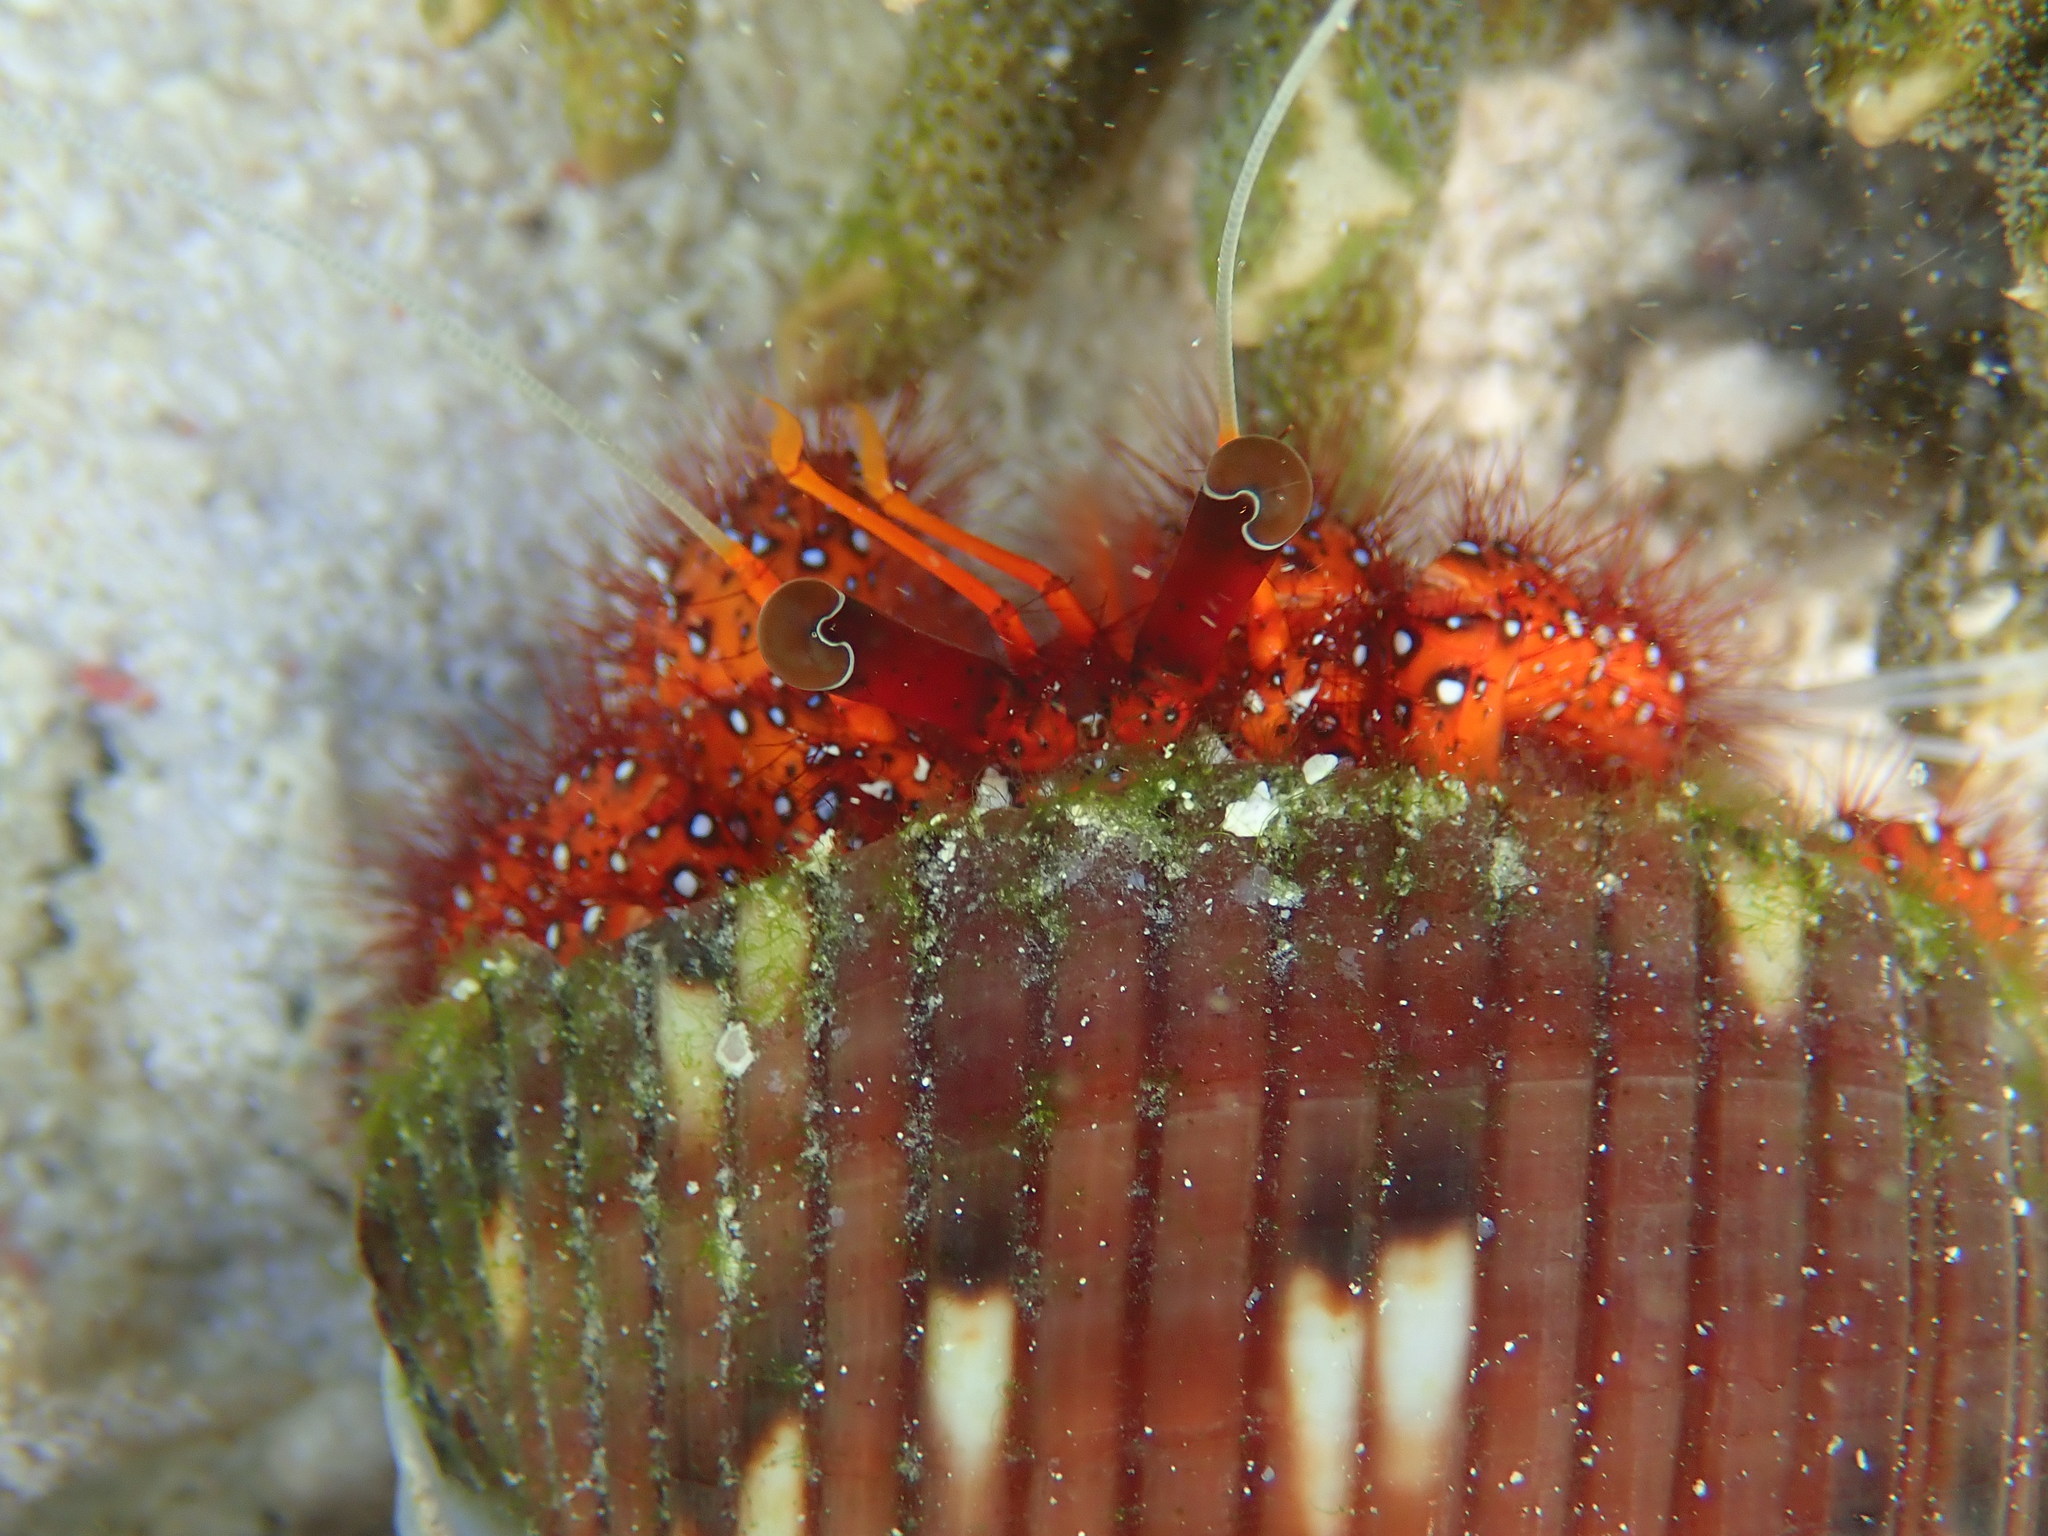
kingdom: Animalia
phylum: Arthropoda
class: Malacostraca
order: Decapoda
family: Diogenidae
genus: Dardanus
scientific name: Dardanus megistos
